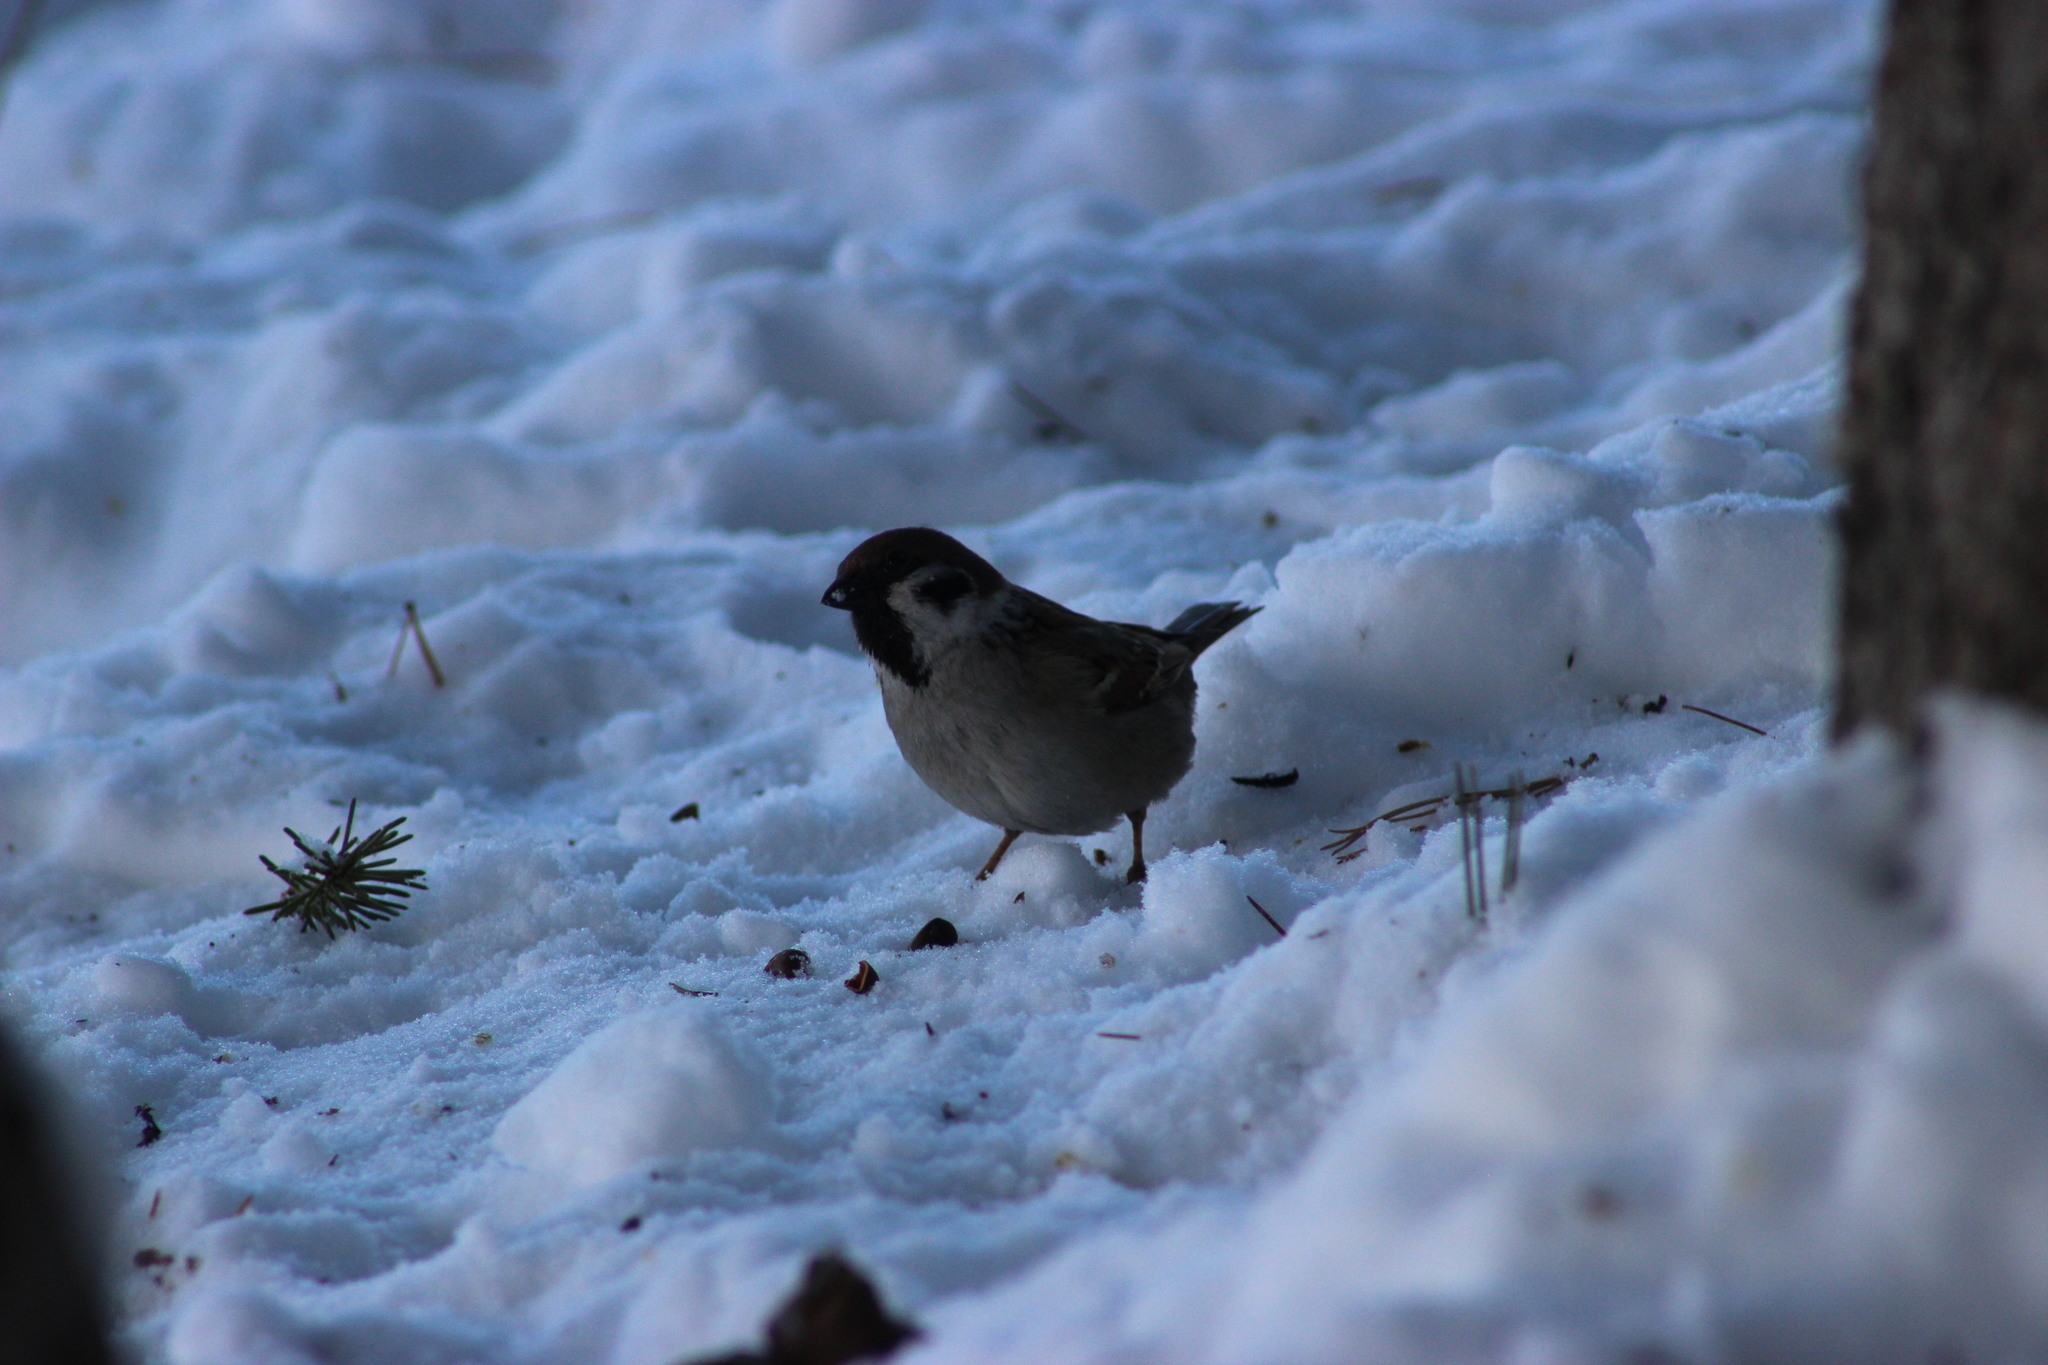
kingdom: Animalia
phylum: Chordata
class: Aves
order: Passeriformes
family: Passeridae
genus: Passer
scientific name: Passer montanus
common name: Eurasian tree sparrow
